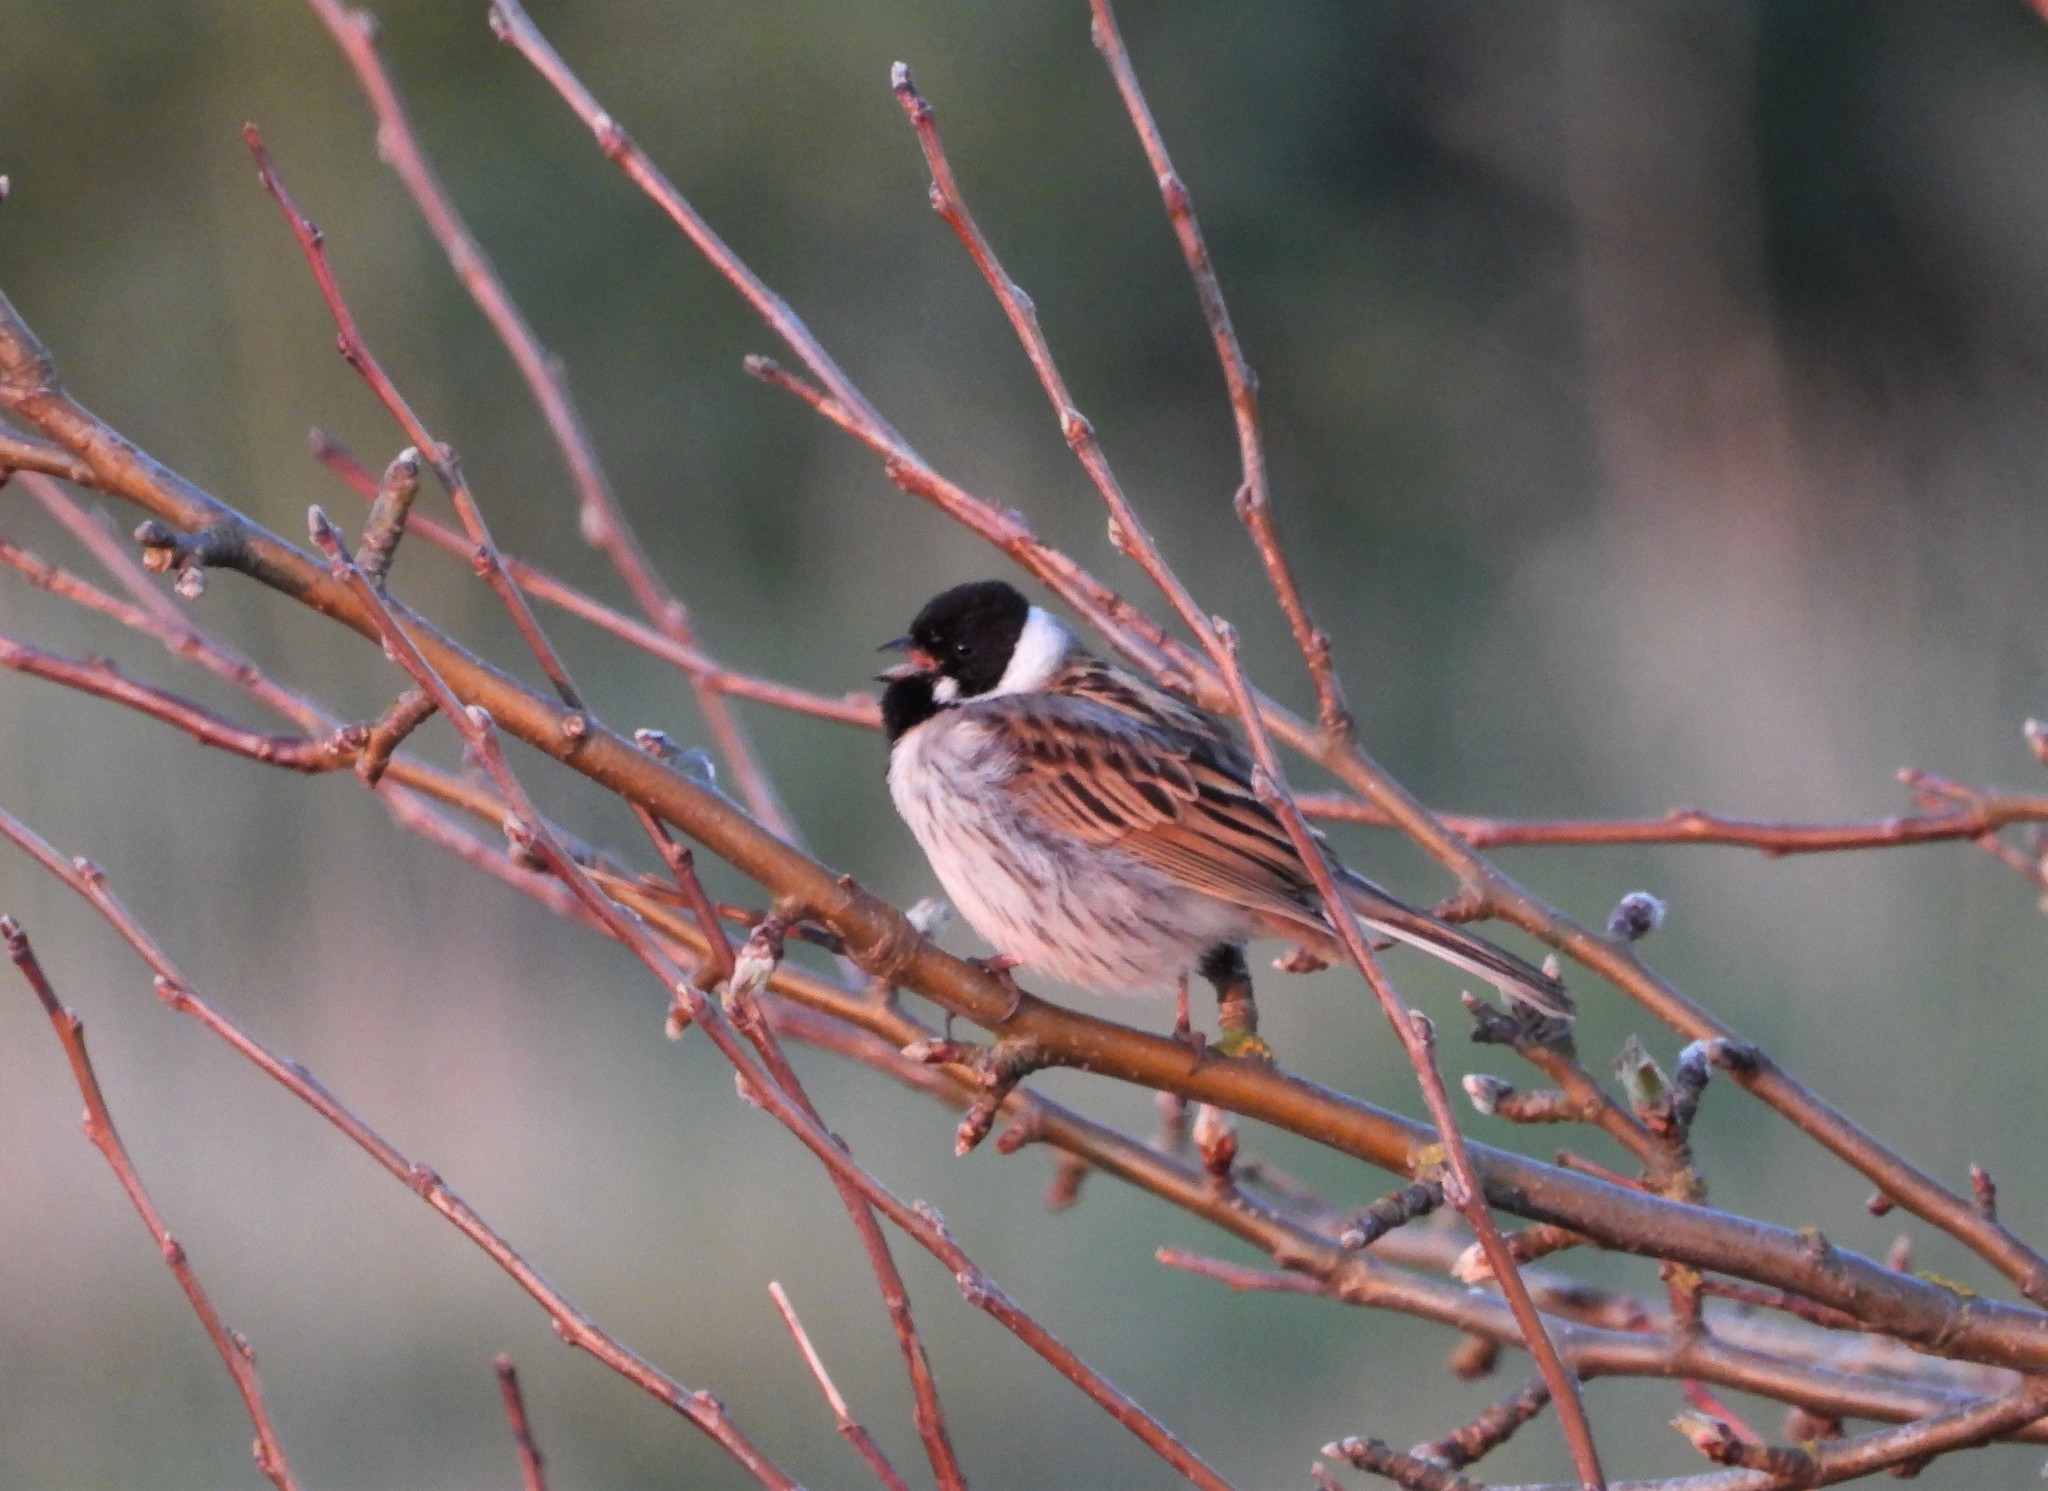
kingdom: Animalia
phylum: Chordata
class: Aves
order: Passeriformes
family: Emberizidae
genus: Emberiza
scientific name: Emberiza schoeniclus
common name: Reed bunting
